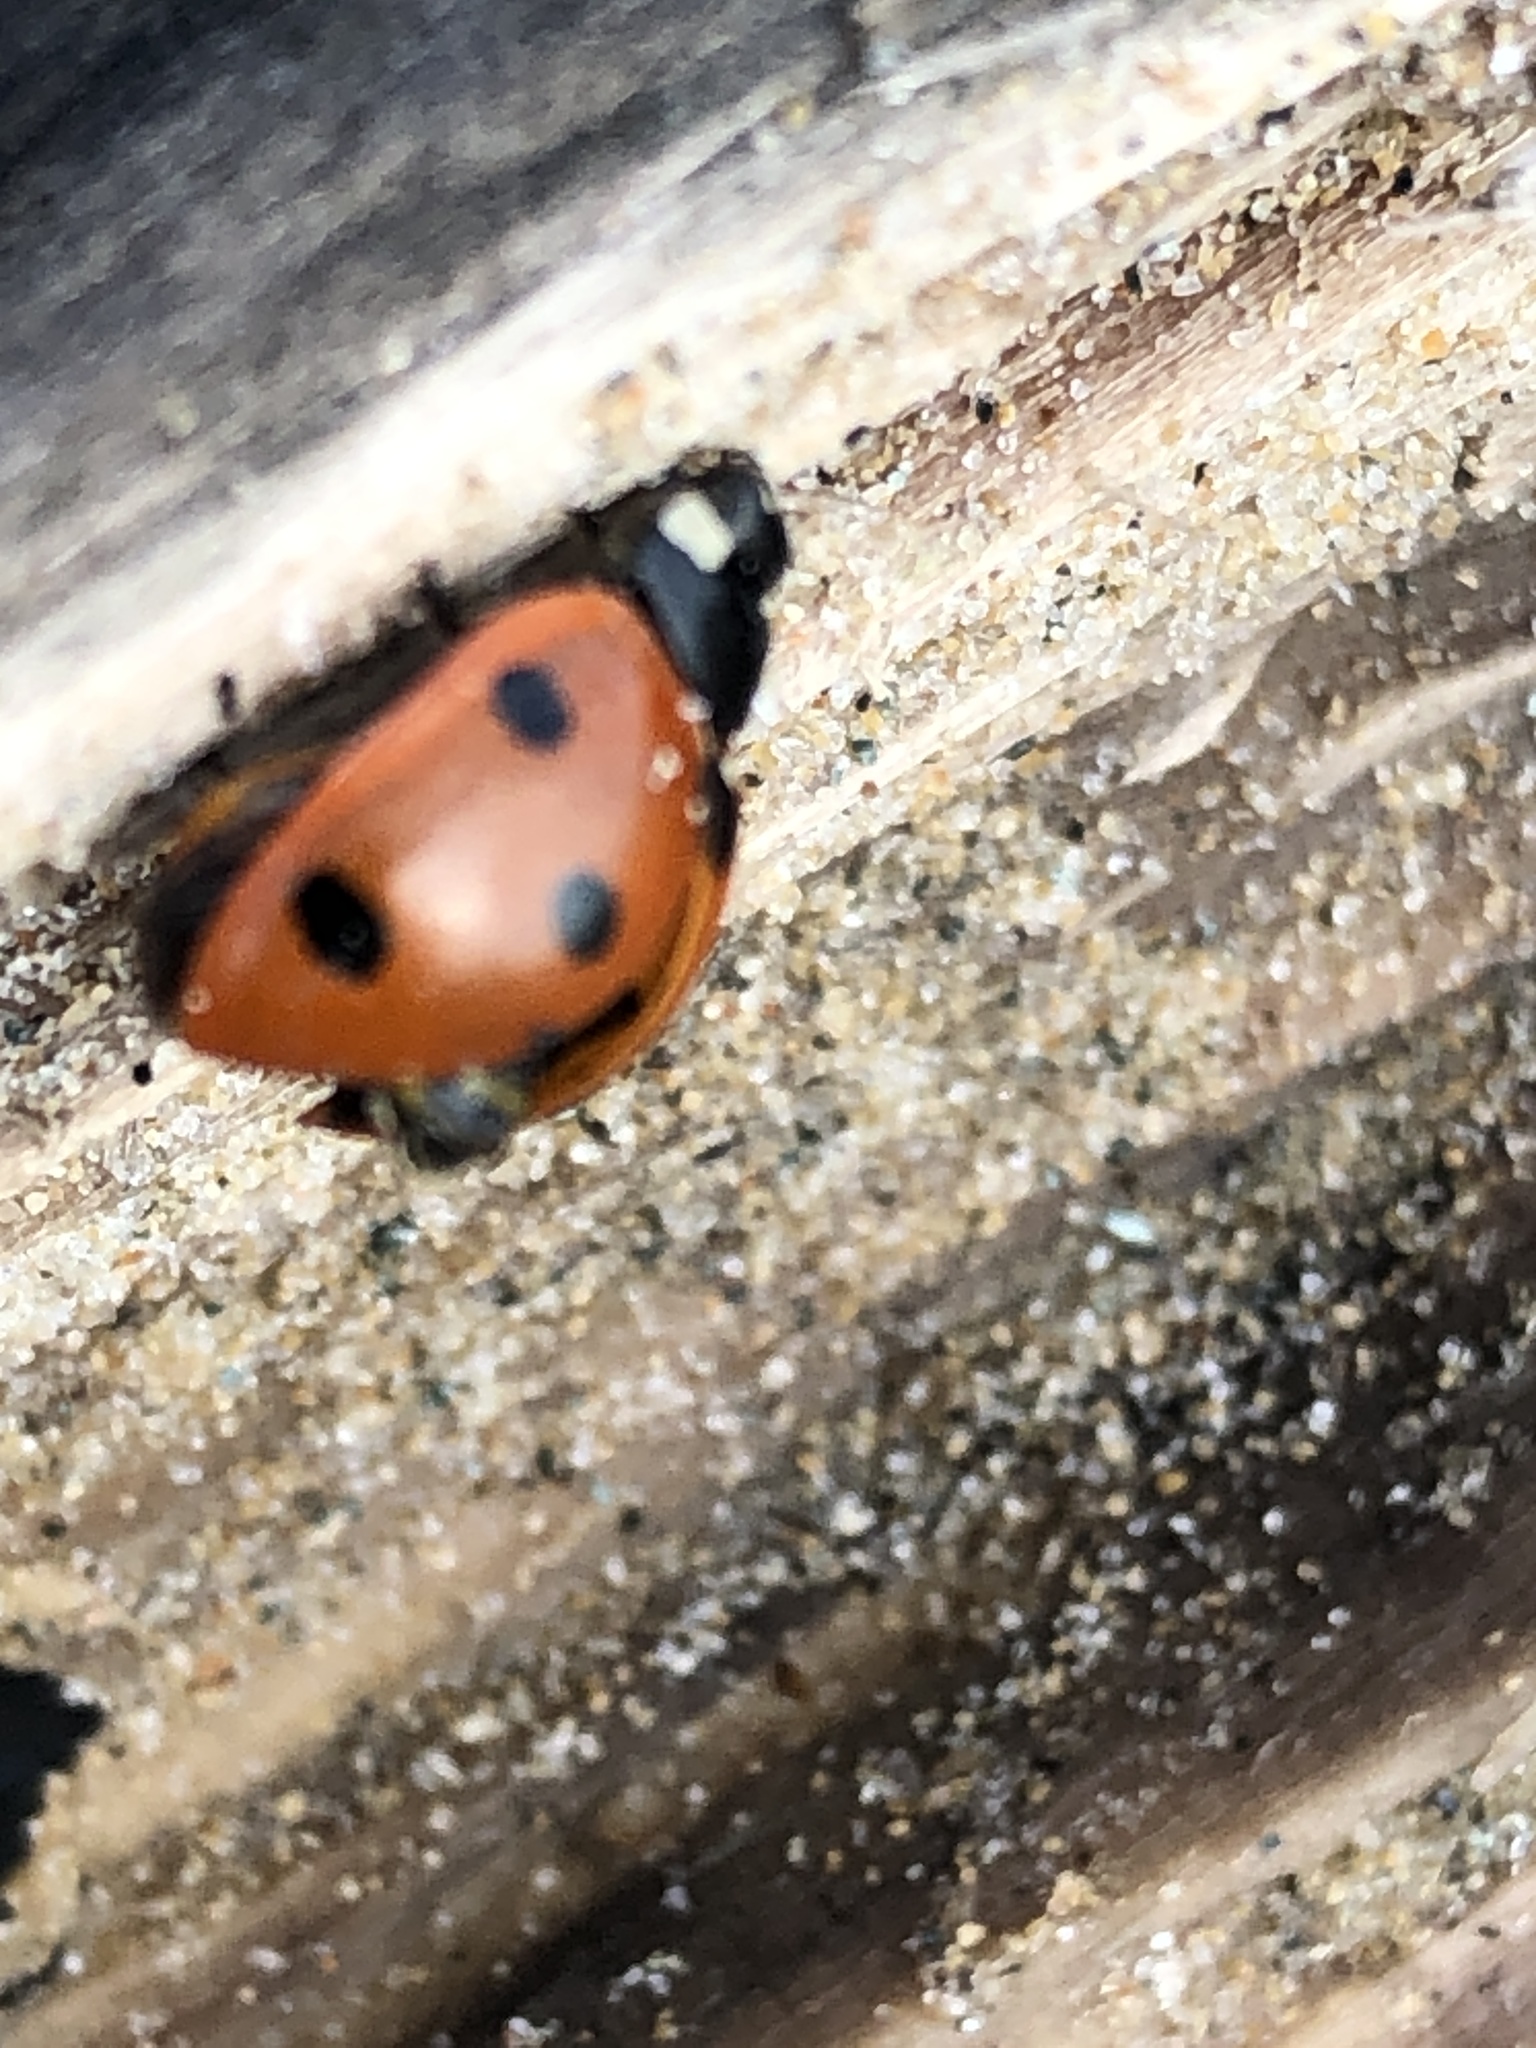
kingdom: Animalia
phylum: Arthropoda
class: Insecta
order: Coleoptera
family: Coccinellidae
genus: Coccinella
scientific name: Coccinella septempunctata
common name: Sevenspotted lady beetle
